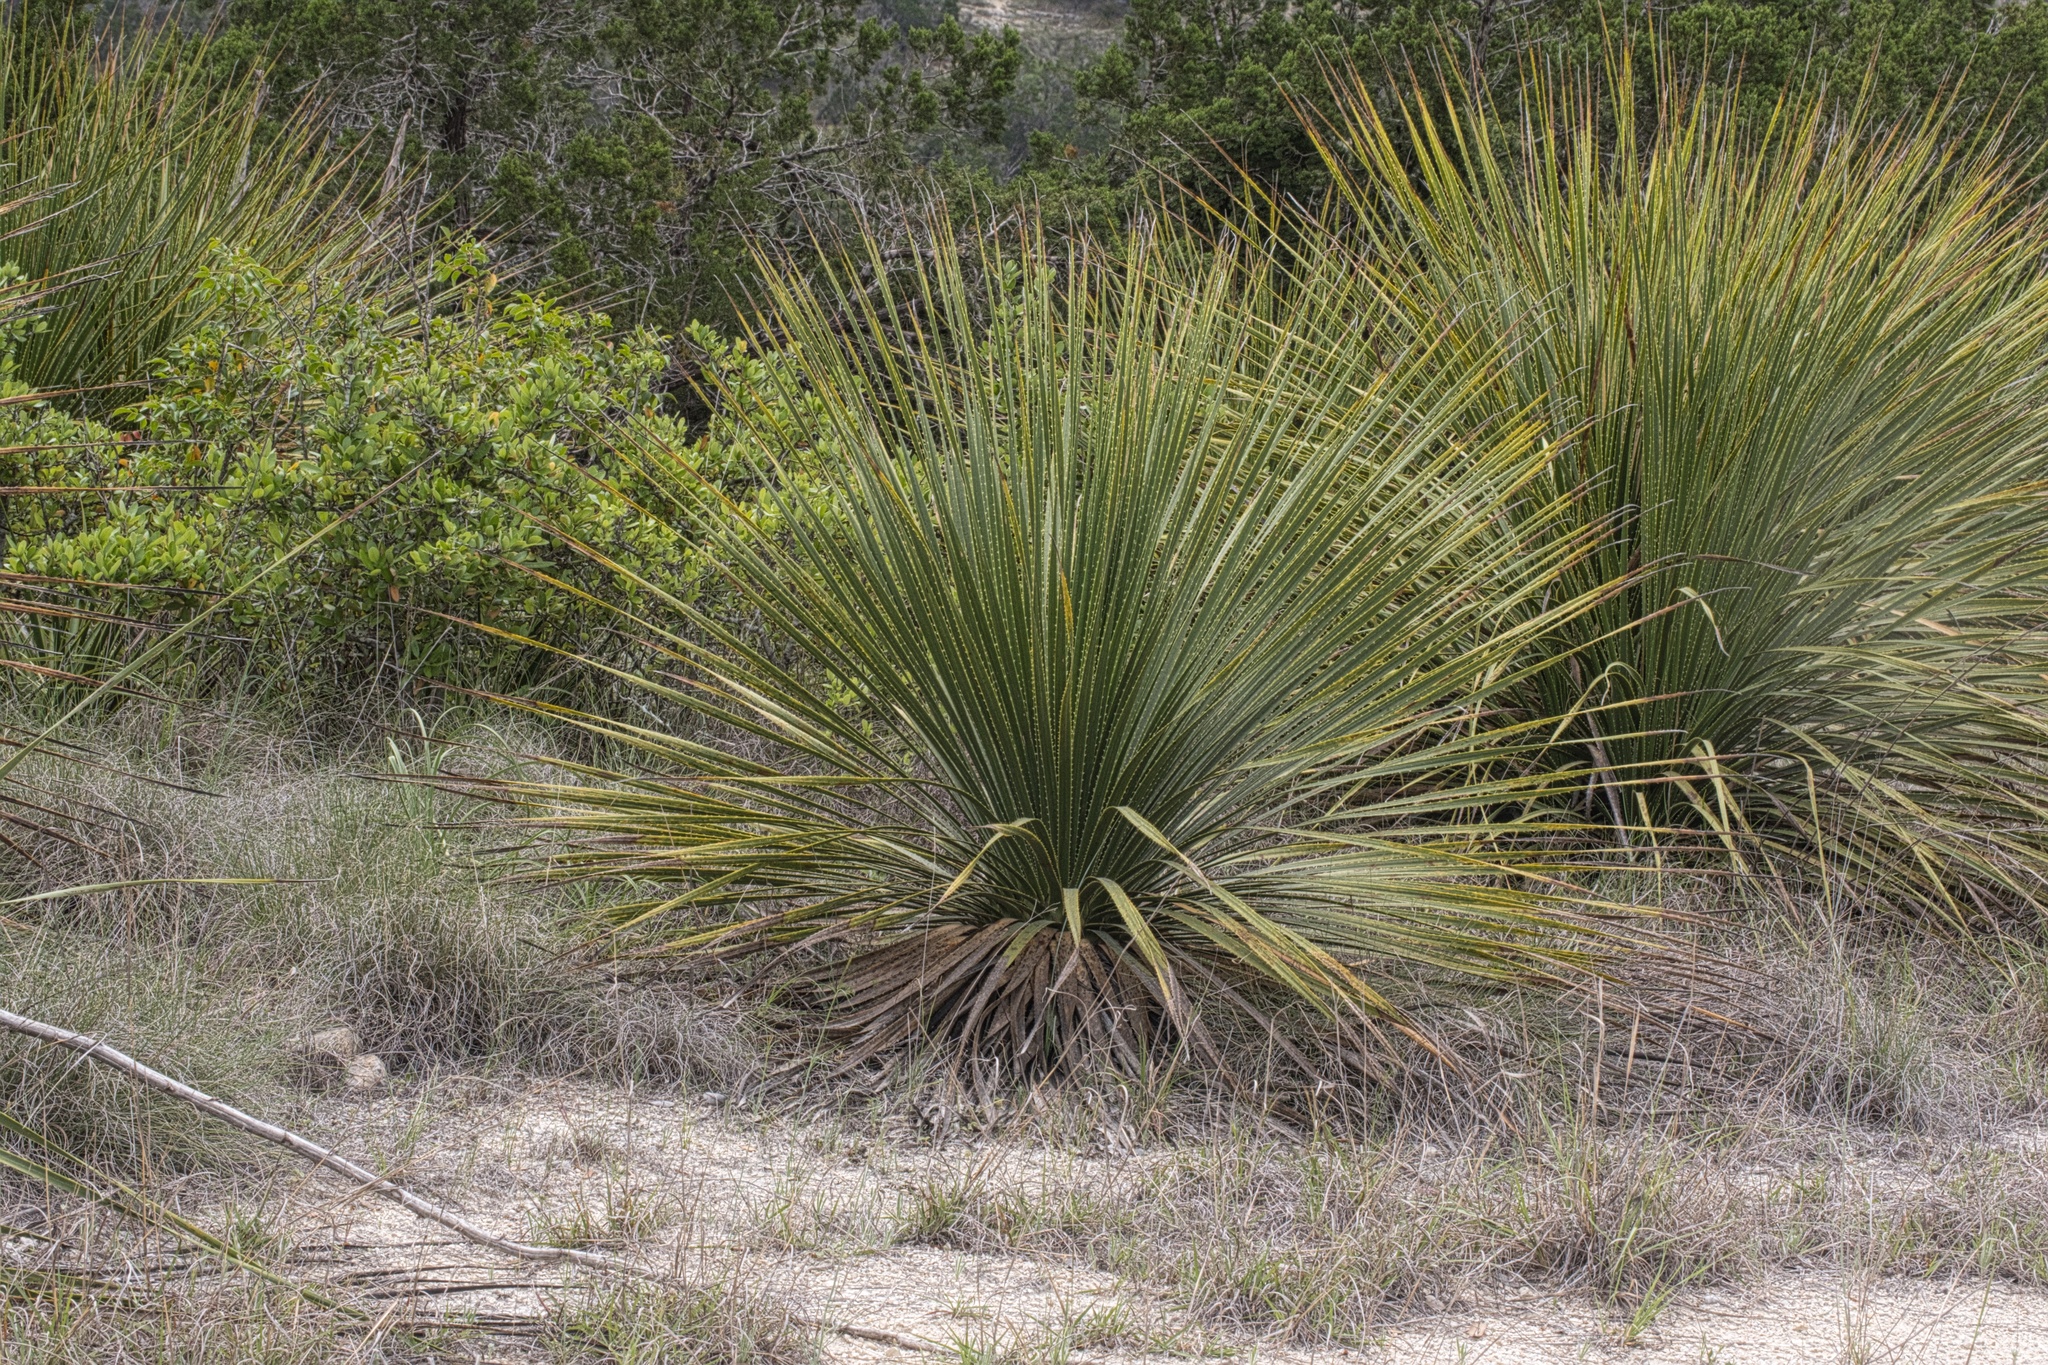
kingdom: Plantae
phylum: Tracheophyta
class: Liliopsida
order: Asparagales
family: Asparagaceae
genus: Dasylirion
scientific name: Dasylirion texanum
